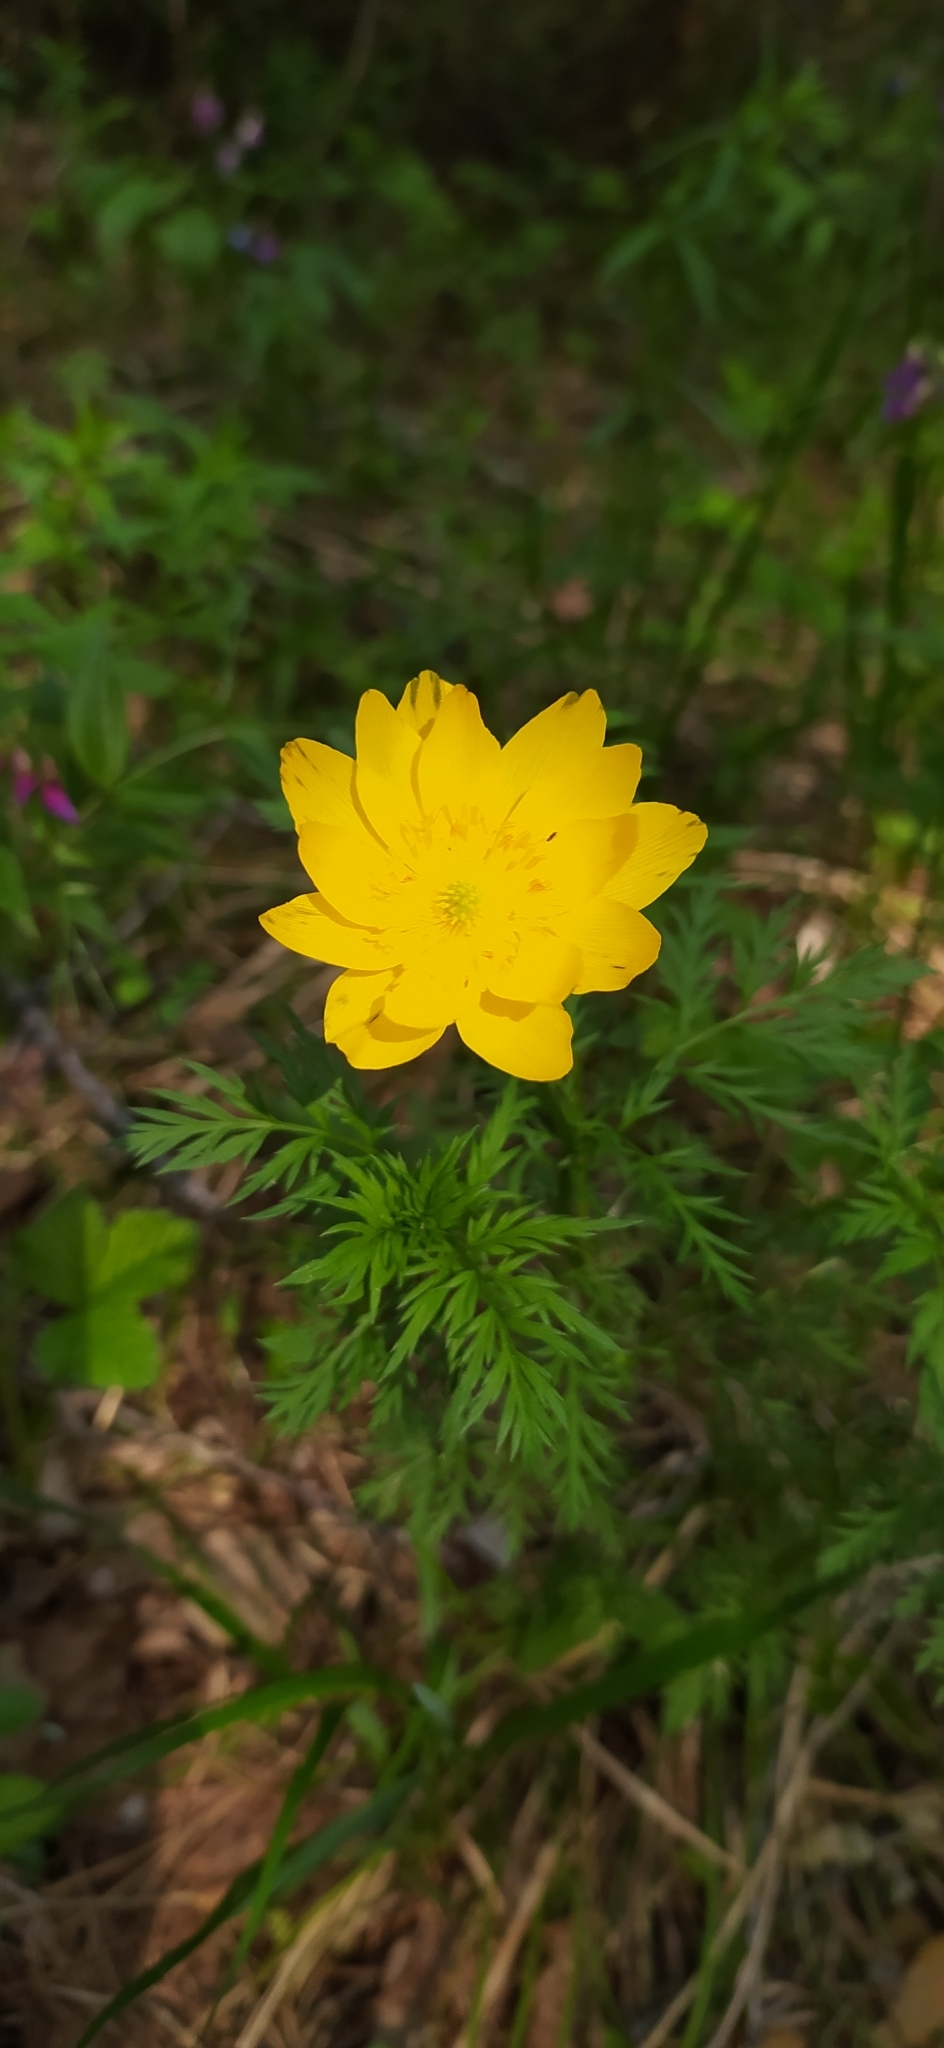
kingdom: Plantae
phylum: Tracheophyta
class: Magnoliopsida
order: Ranunculales
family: Ranunculaceae
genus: Adonis
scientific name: Adonis
